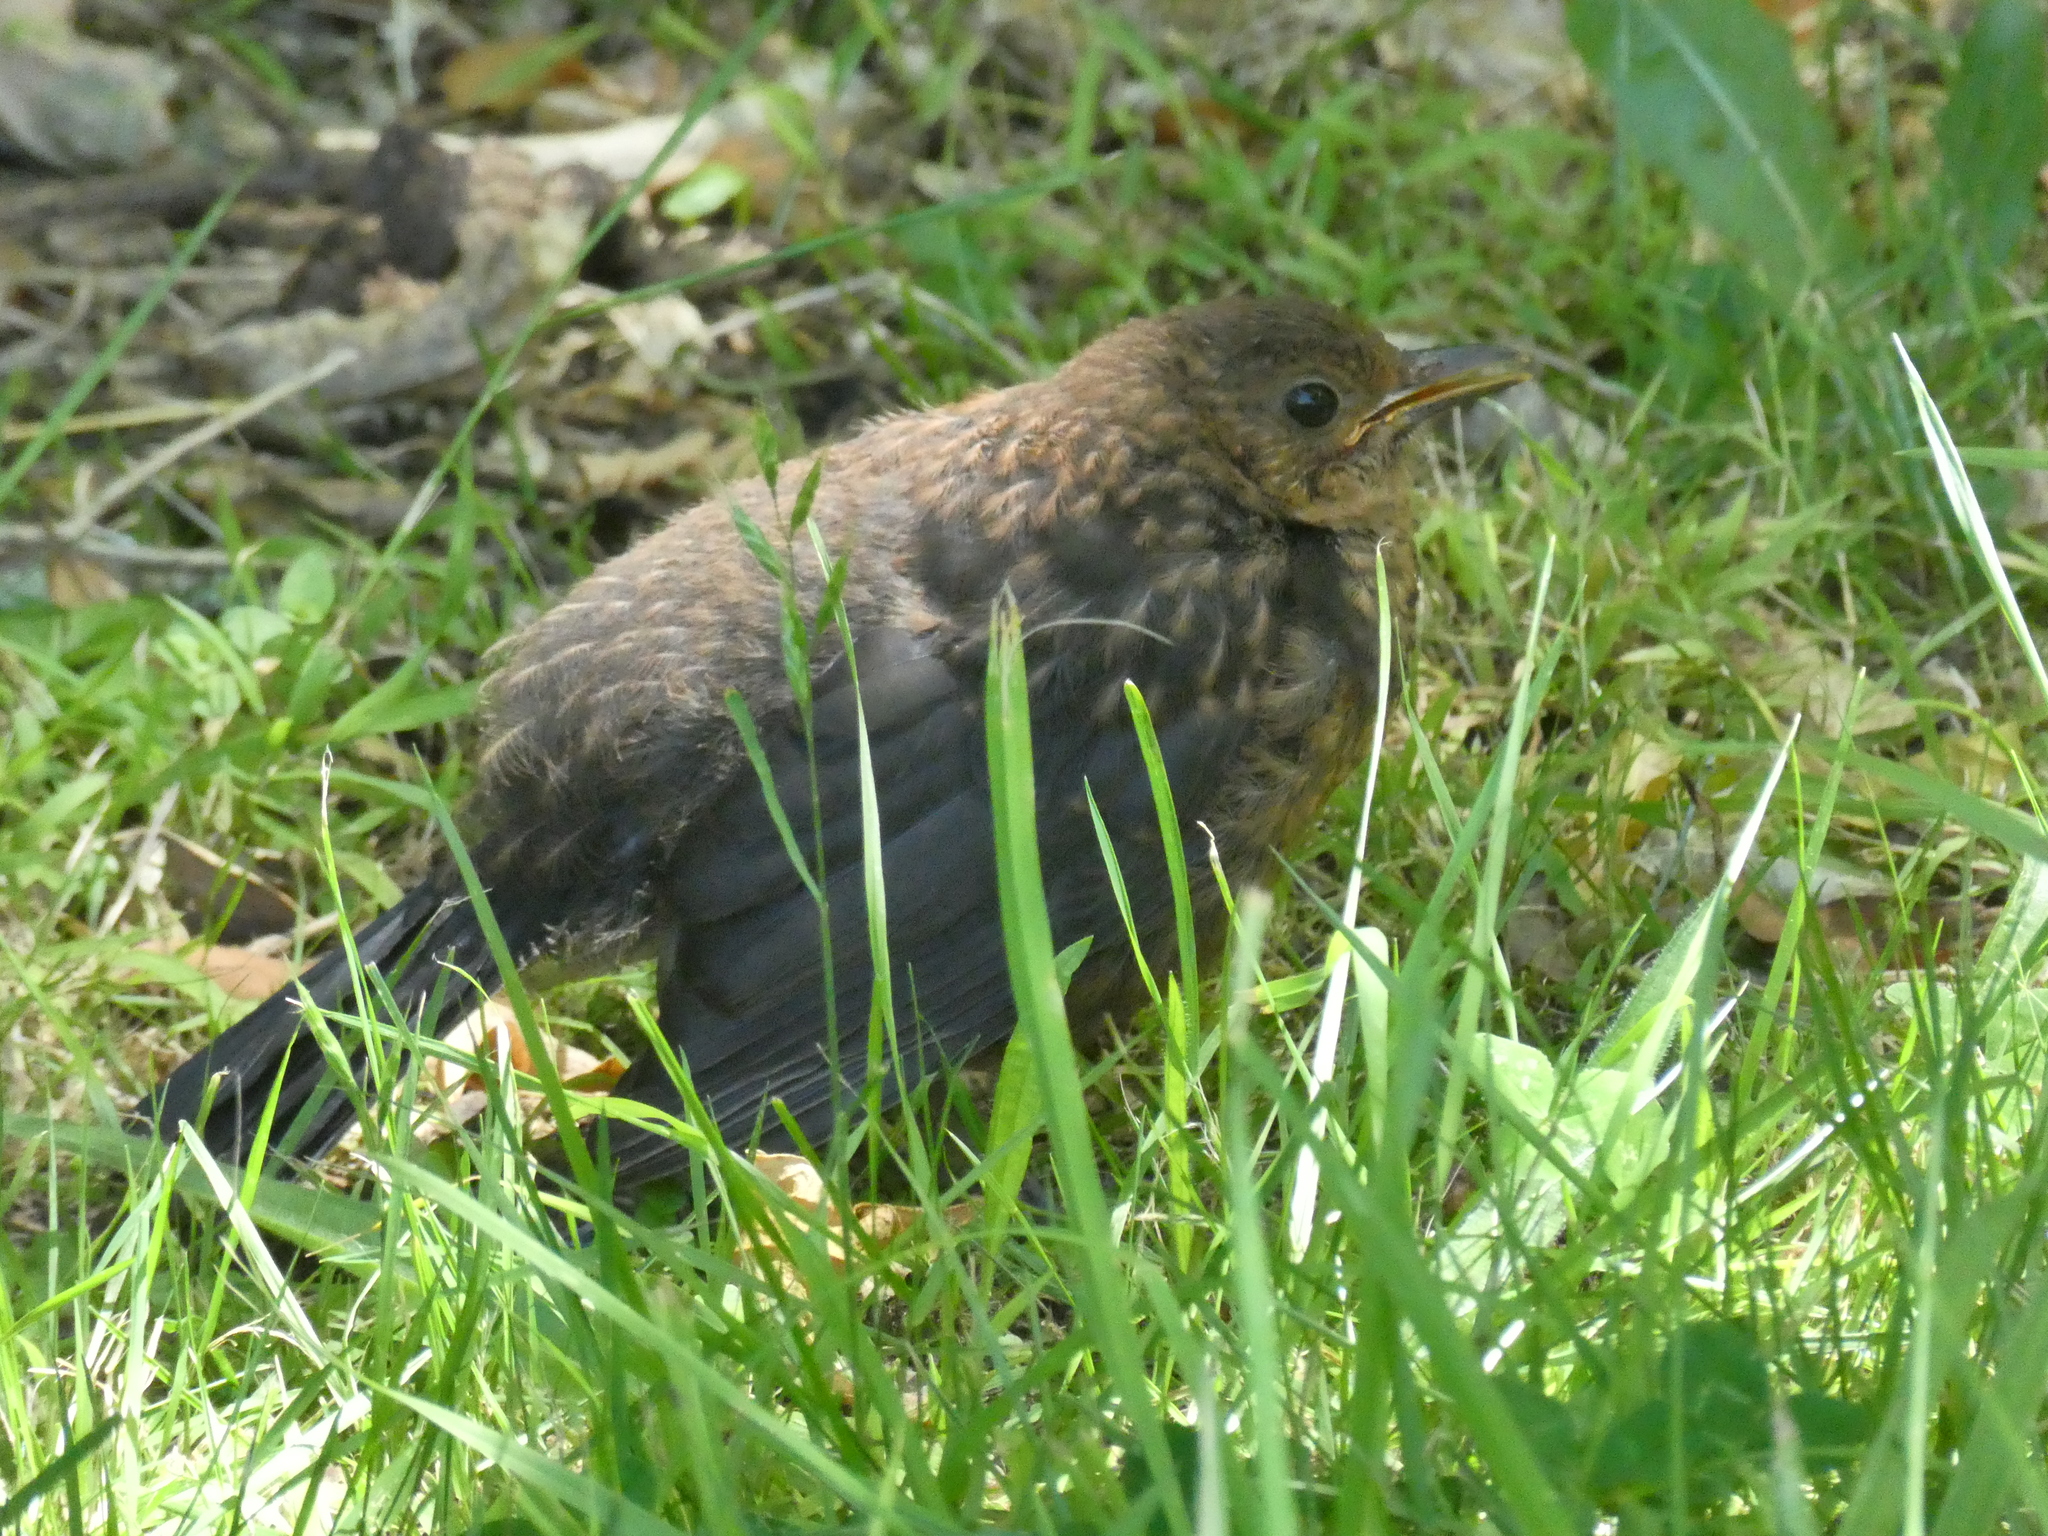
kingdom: Animalia
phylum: Chordata
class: Aves
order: Passeriformes
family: Turdidae
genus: Turdus
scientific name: Turdus merula
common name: Common blackbird
